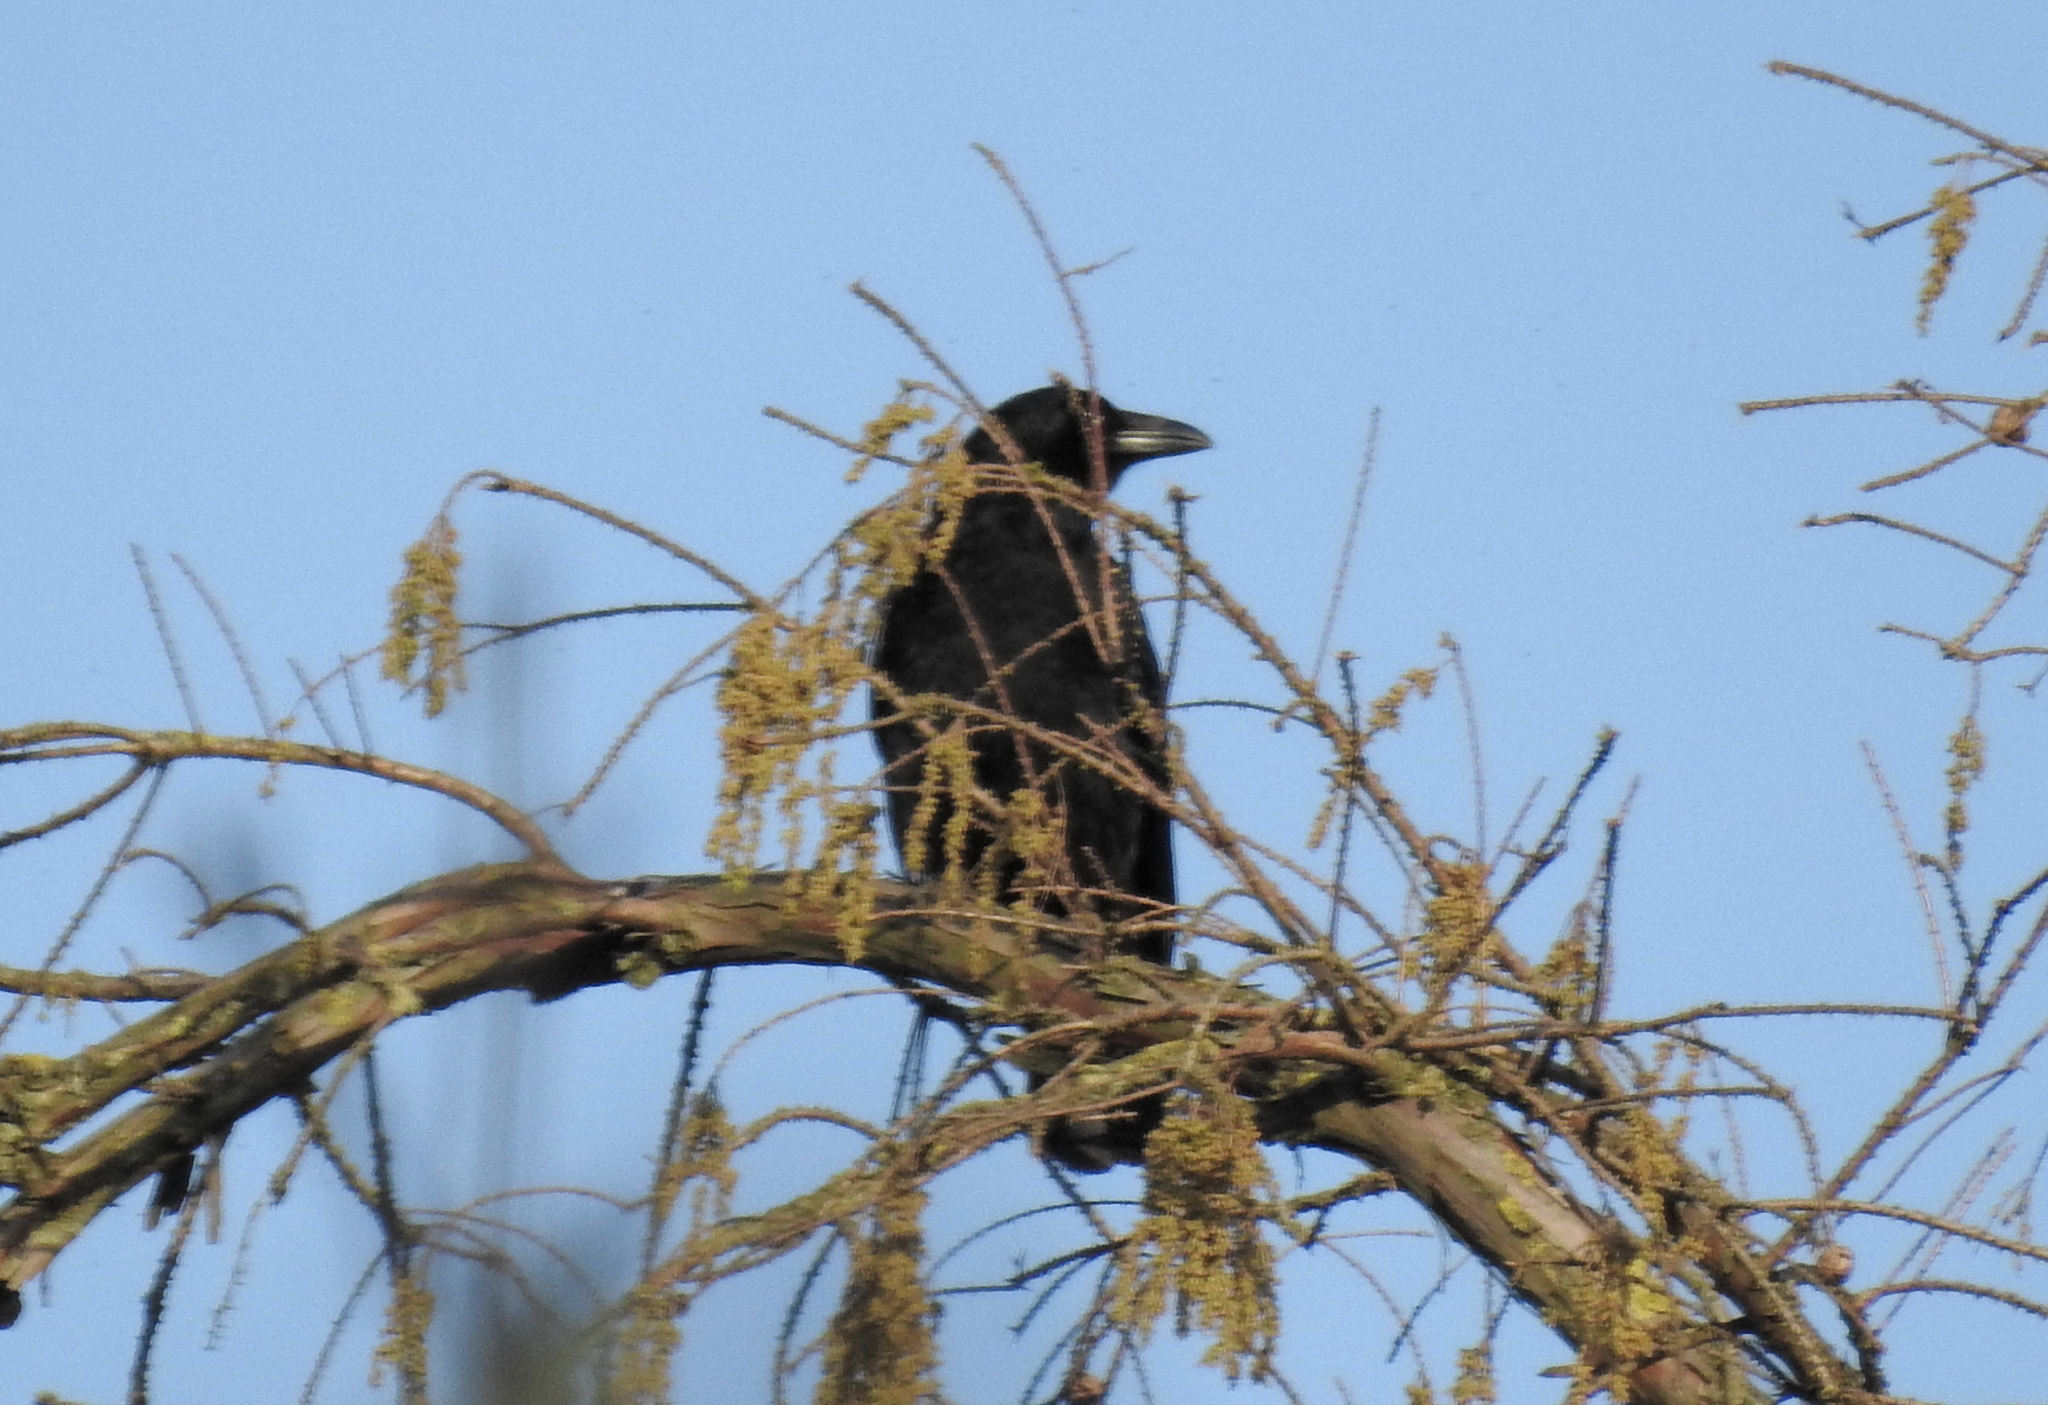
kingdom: Animalia
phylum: Chordata
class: Aves
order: Passeriformes
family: Corvidae
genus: Corvus
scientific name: Corvus corone
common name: Carrion crow
